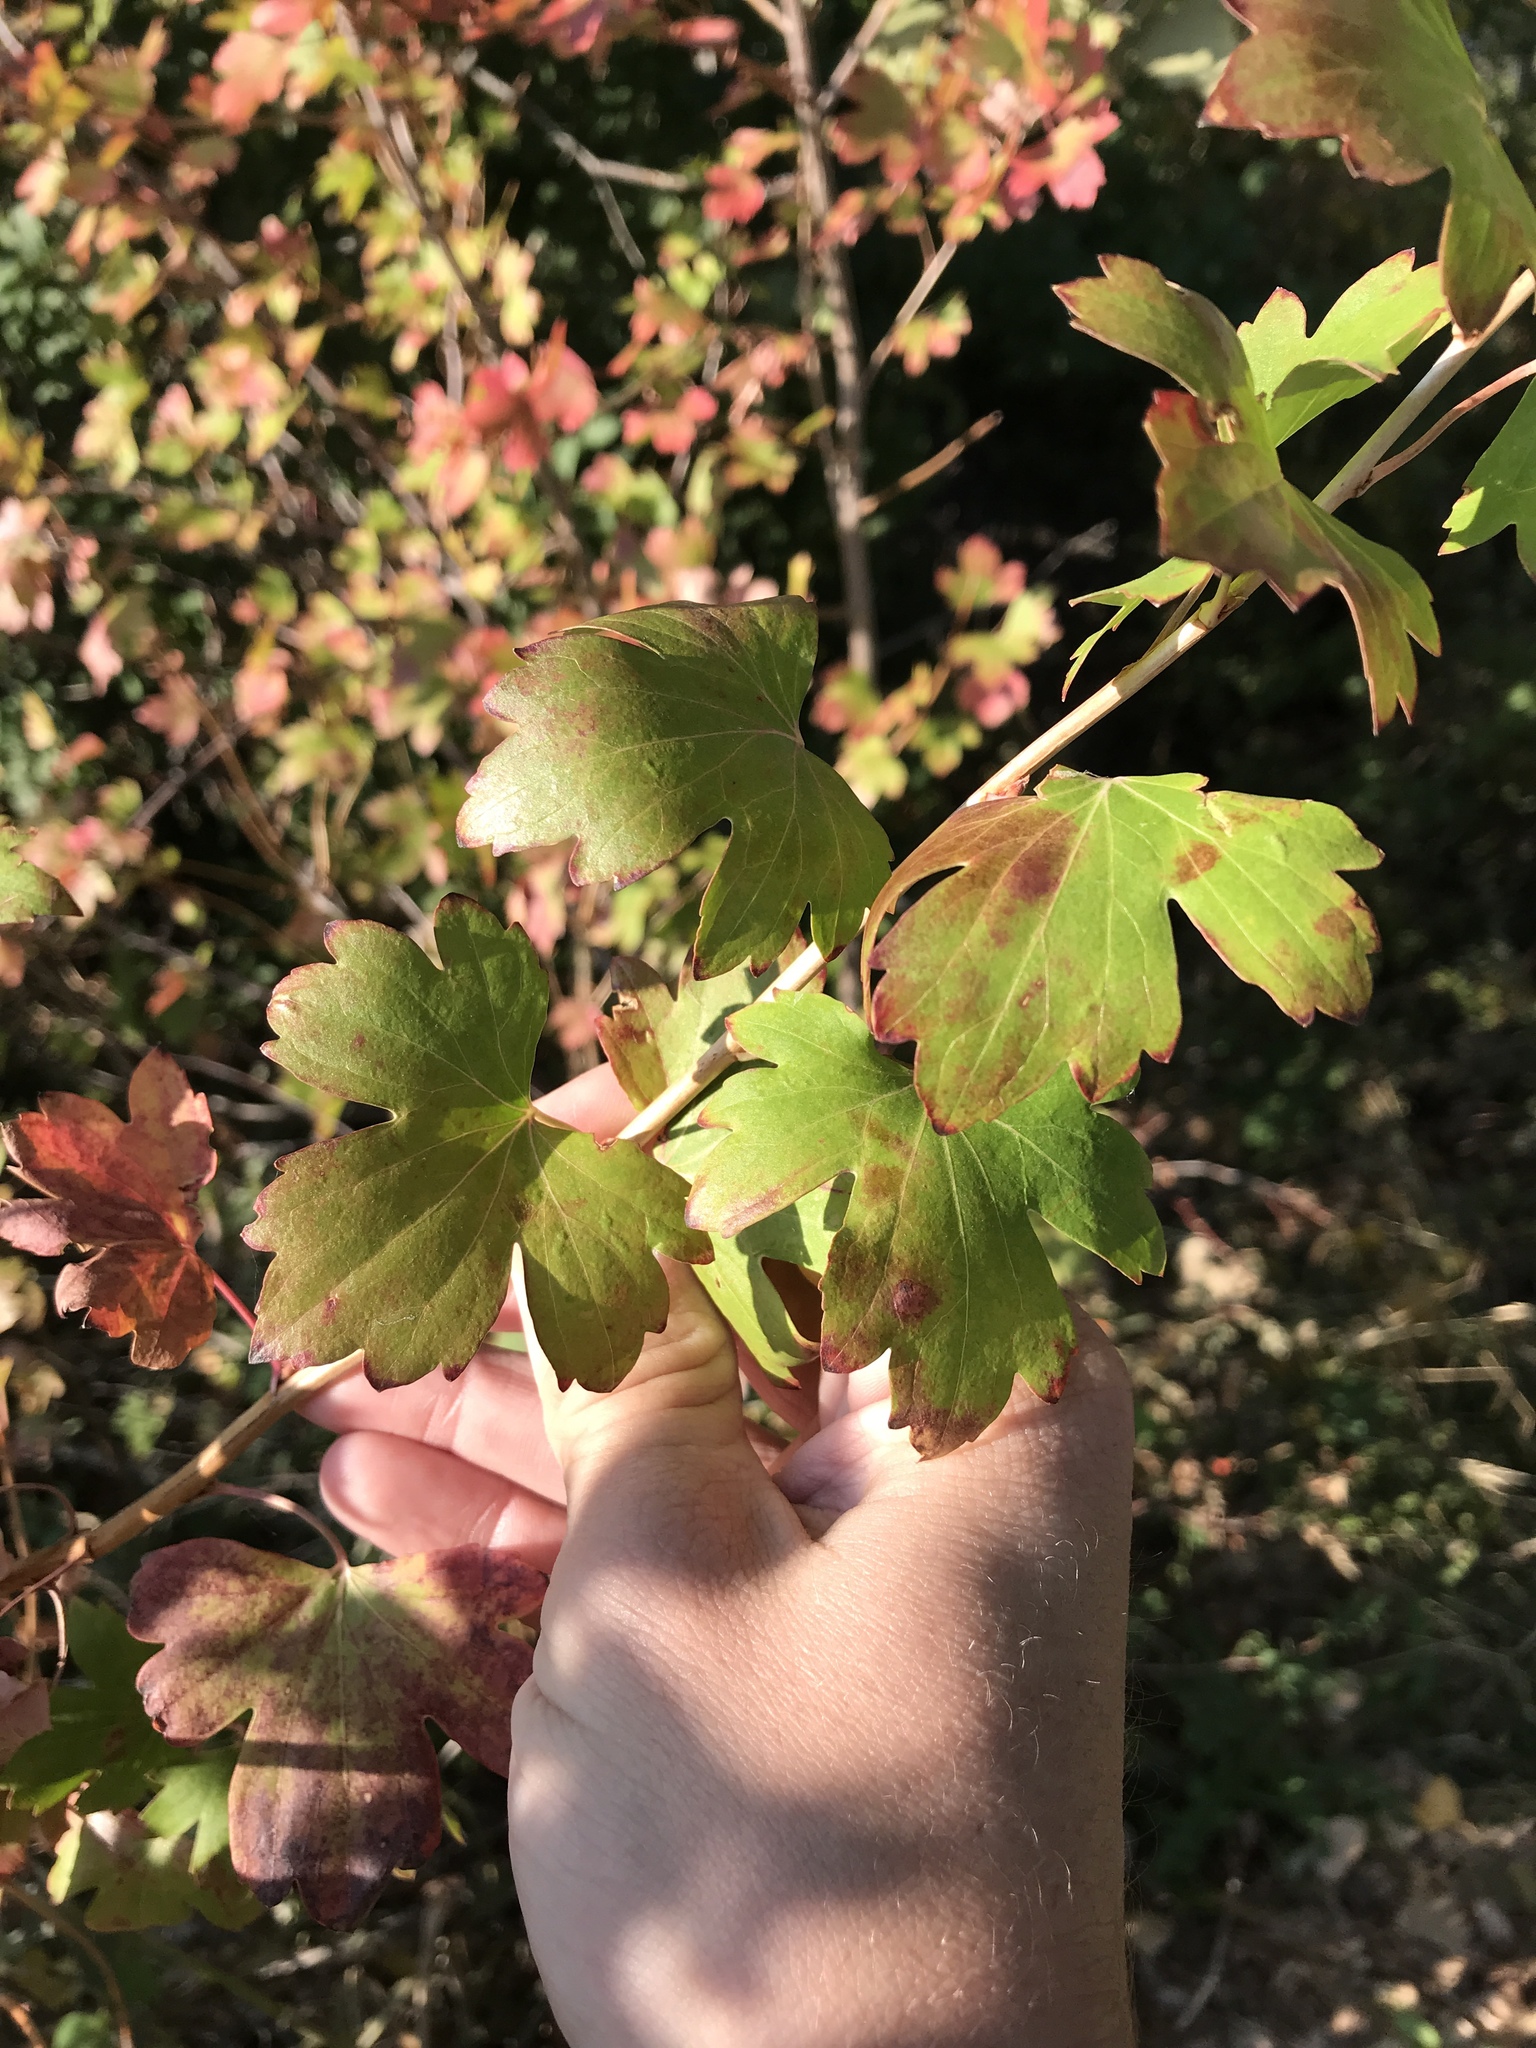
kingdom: Plantae
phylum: Tracheophyta
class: Magnoliopsida
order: Saxifragales
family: Grossulariaceae
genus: Ribes
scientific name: Ribes aureum
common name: Golden currant
